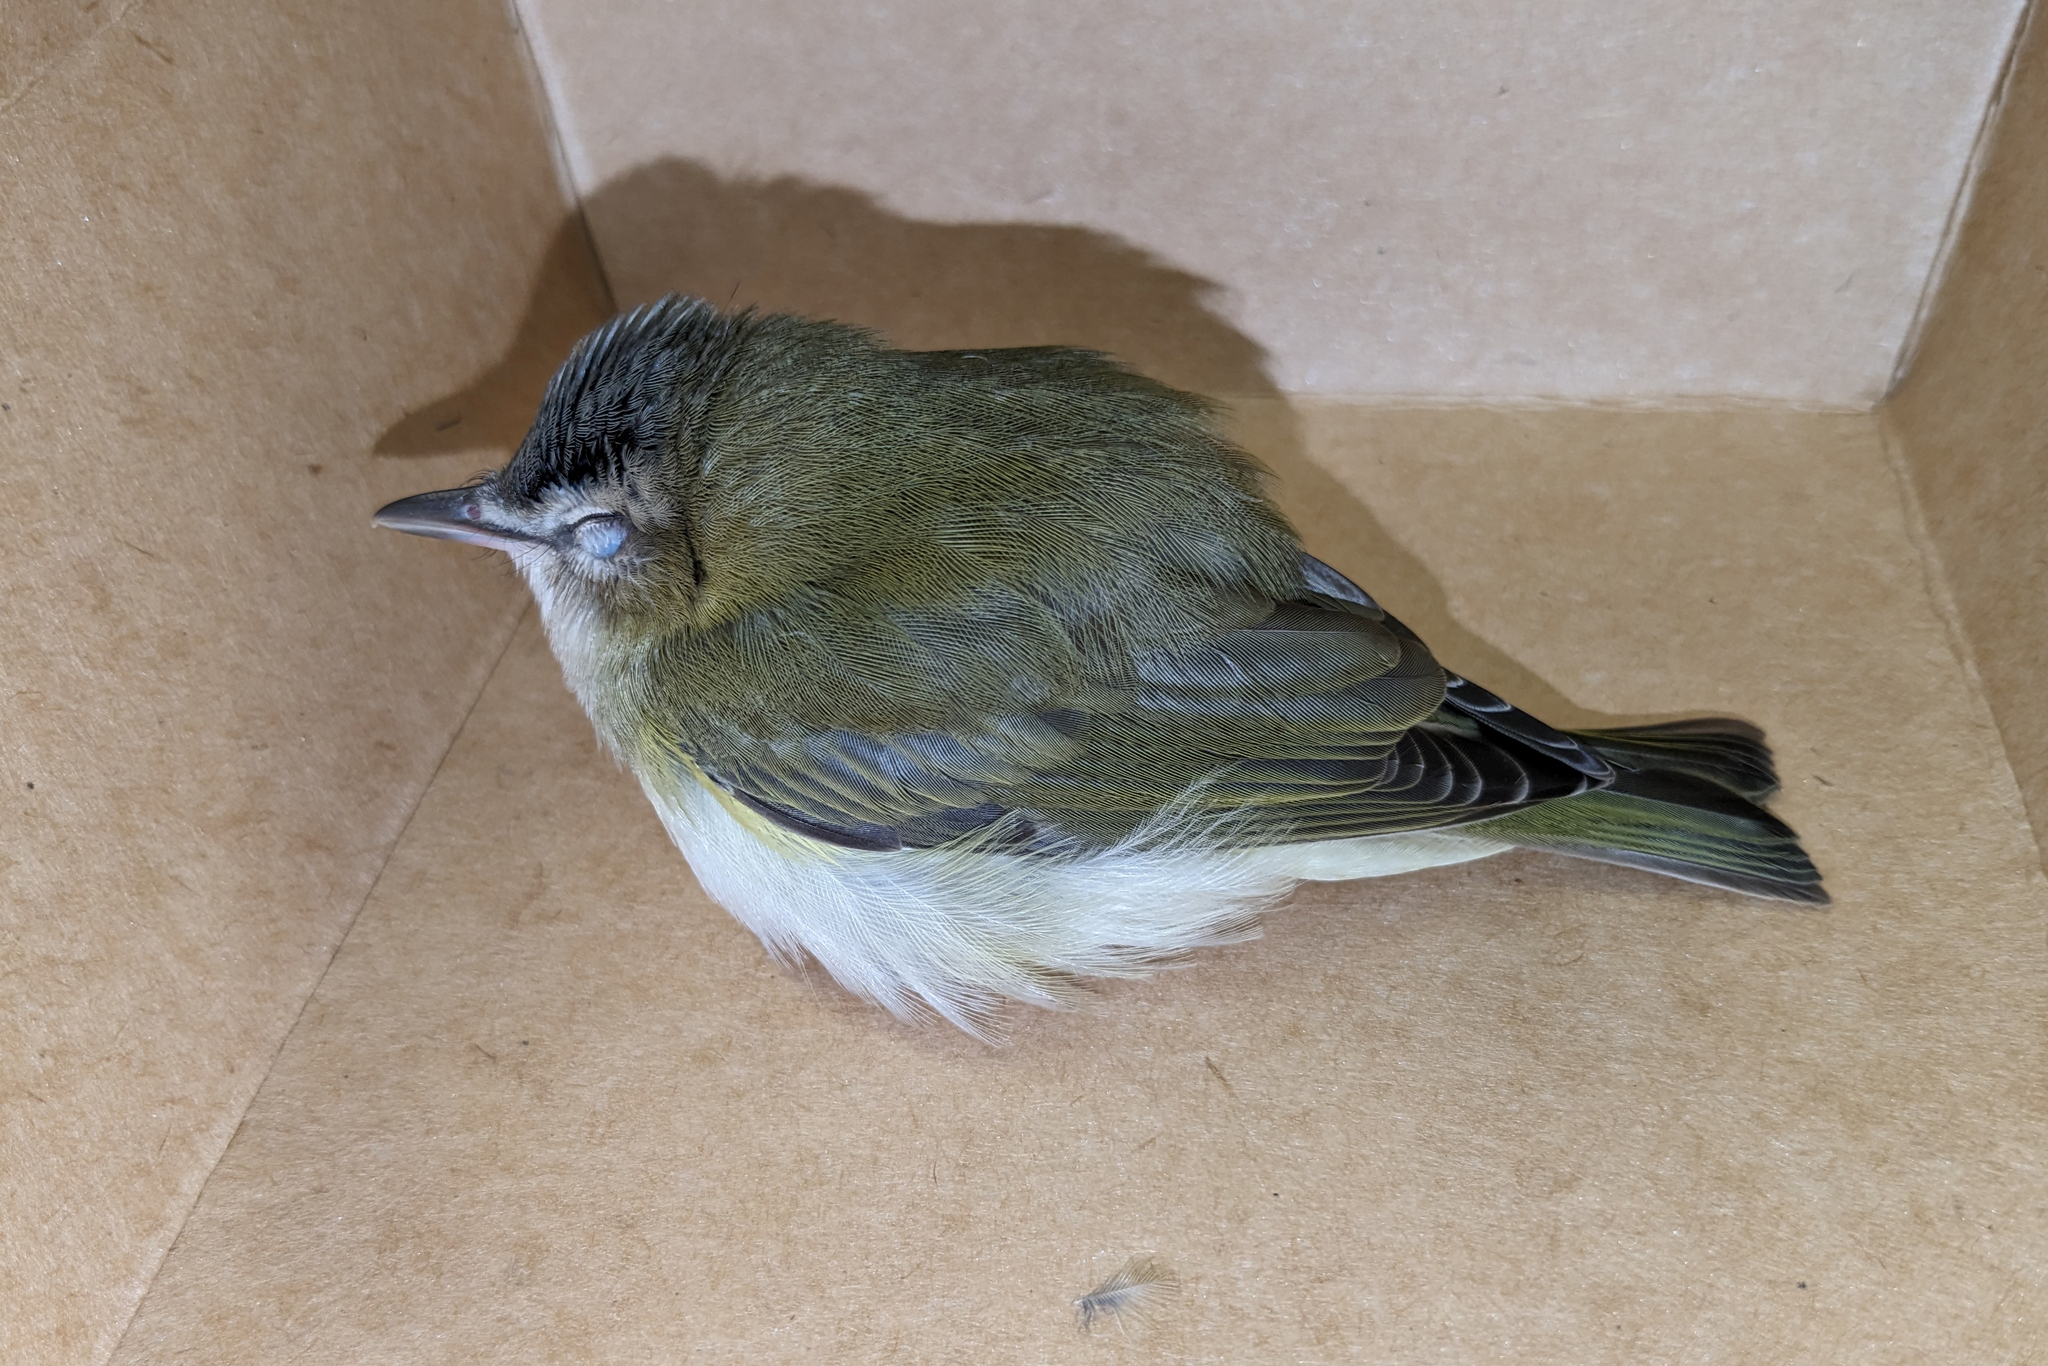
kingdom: Animalia
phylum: Chordata
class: Aves
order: Passeriformes
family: Vireonidae
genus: Vireo
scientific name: Vireo olivaceus
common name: Red-eyed vireo
